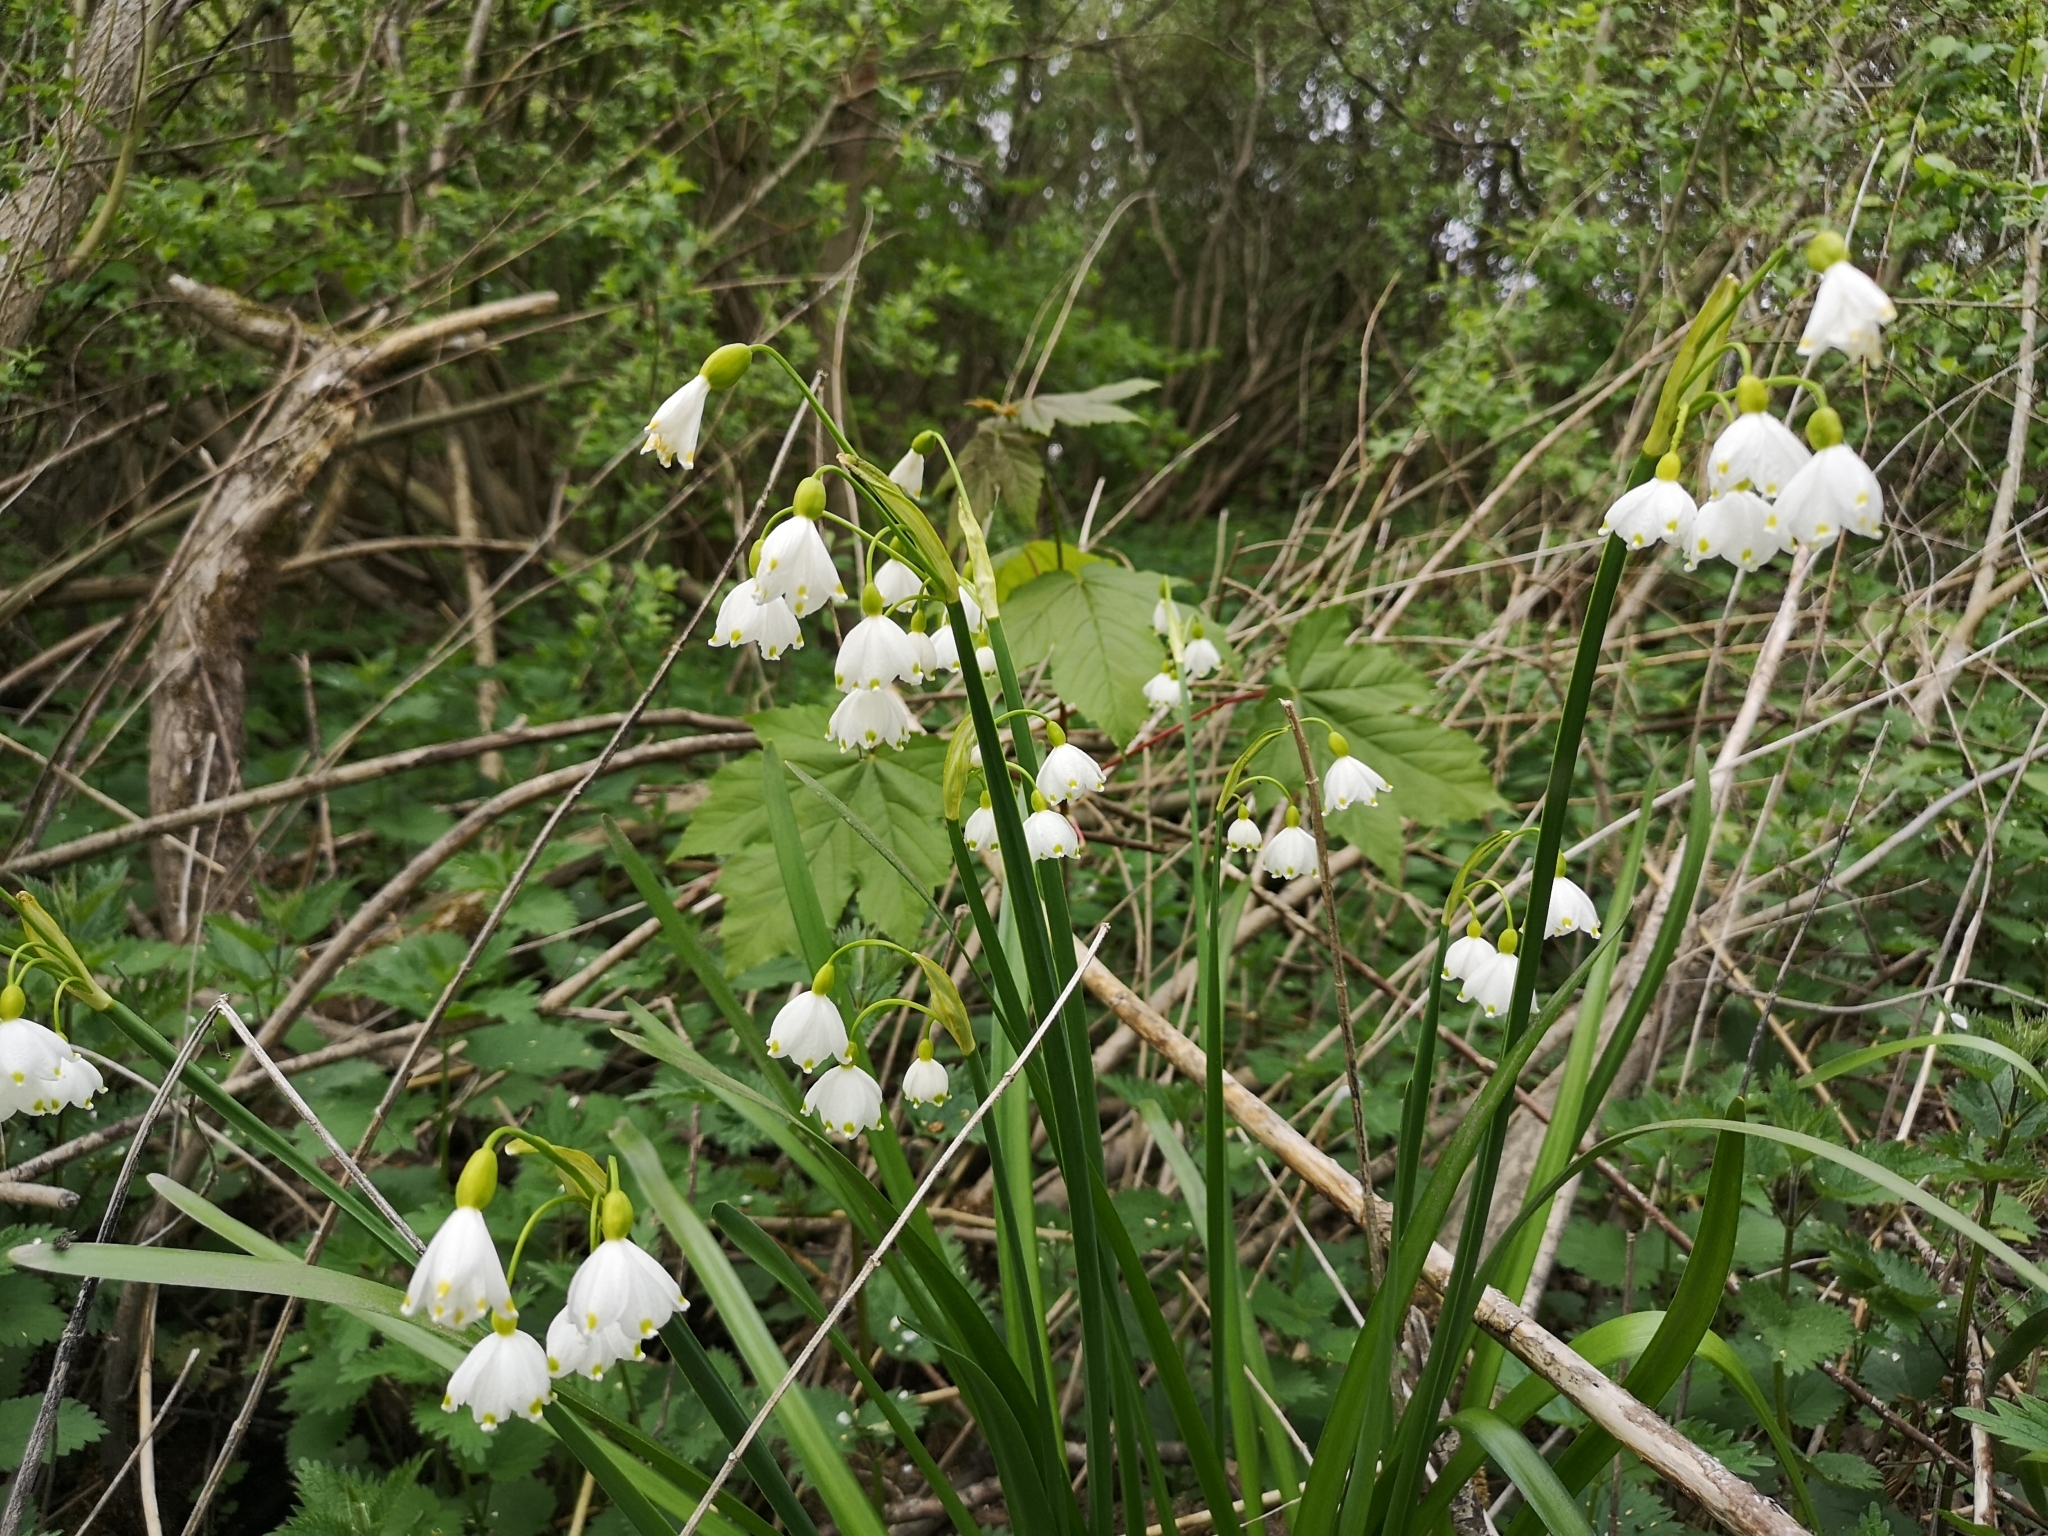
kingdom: Plantae
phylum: Tracheophyta
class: Liliopsida
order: Asparagales
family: Amaryllidaceae
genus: Leucojum
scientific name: Leucojum aestivum
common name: Summer snowflake
